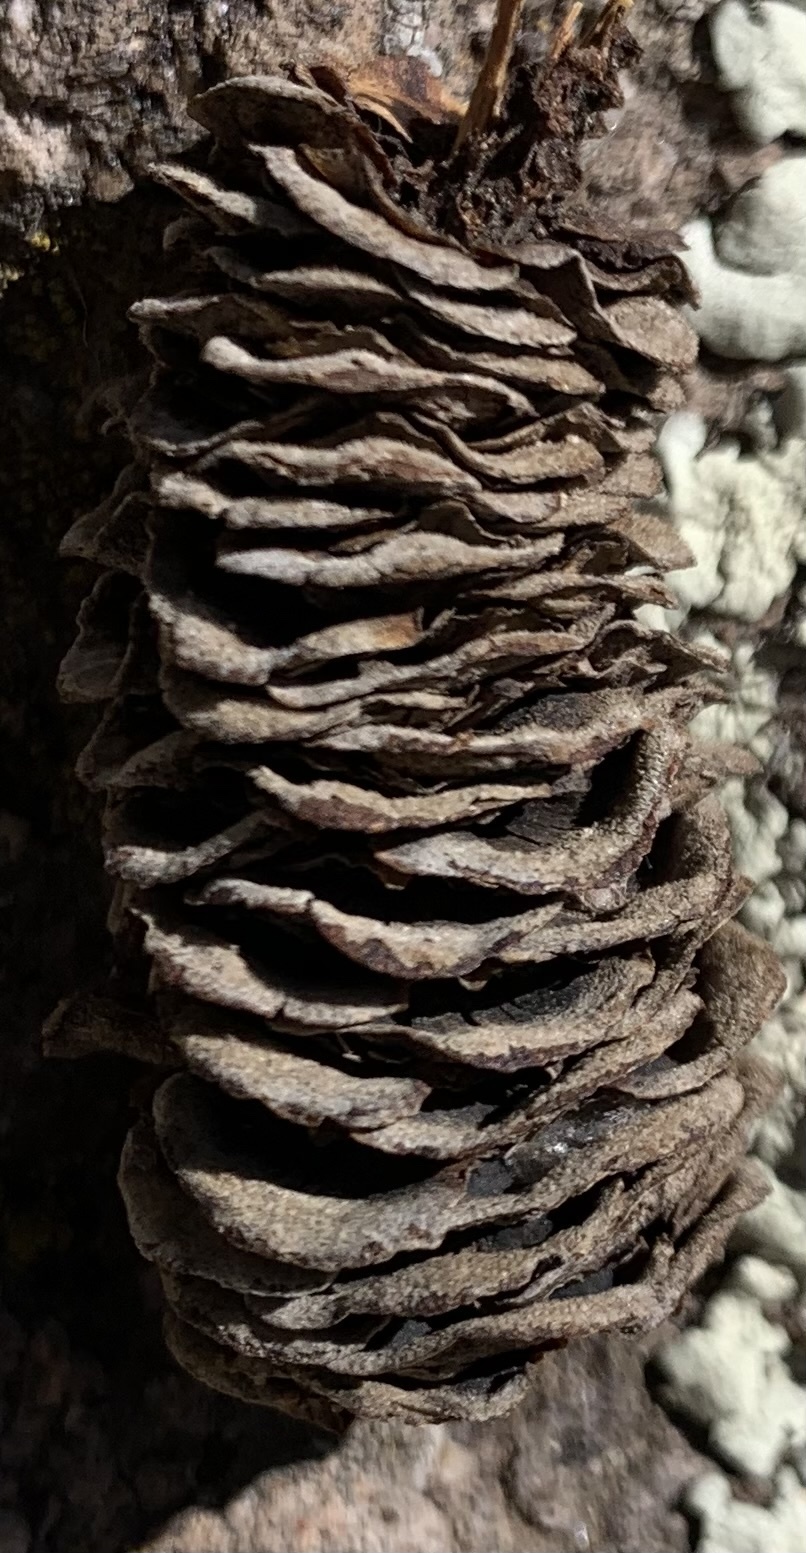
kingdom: Plantae
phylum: Tracheophyta
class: Pinopsida
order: Pinales
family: Pinaceae
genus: Abies
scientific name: Abies concolor
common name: Colorado fir
